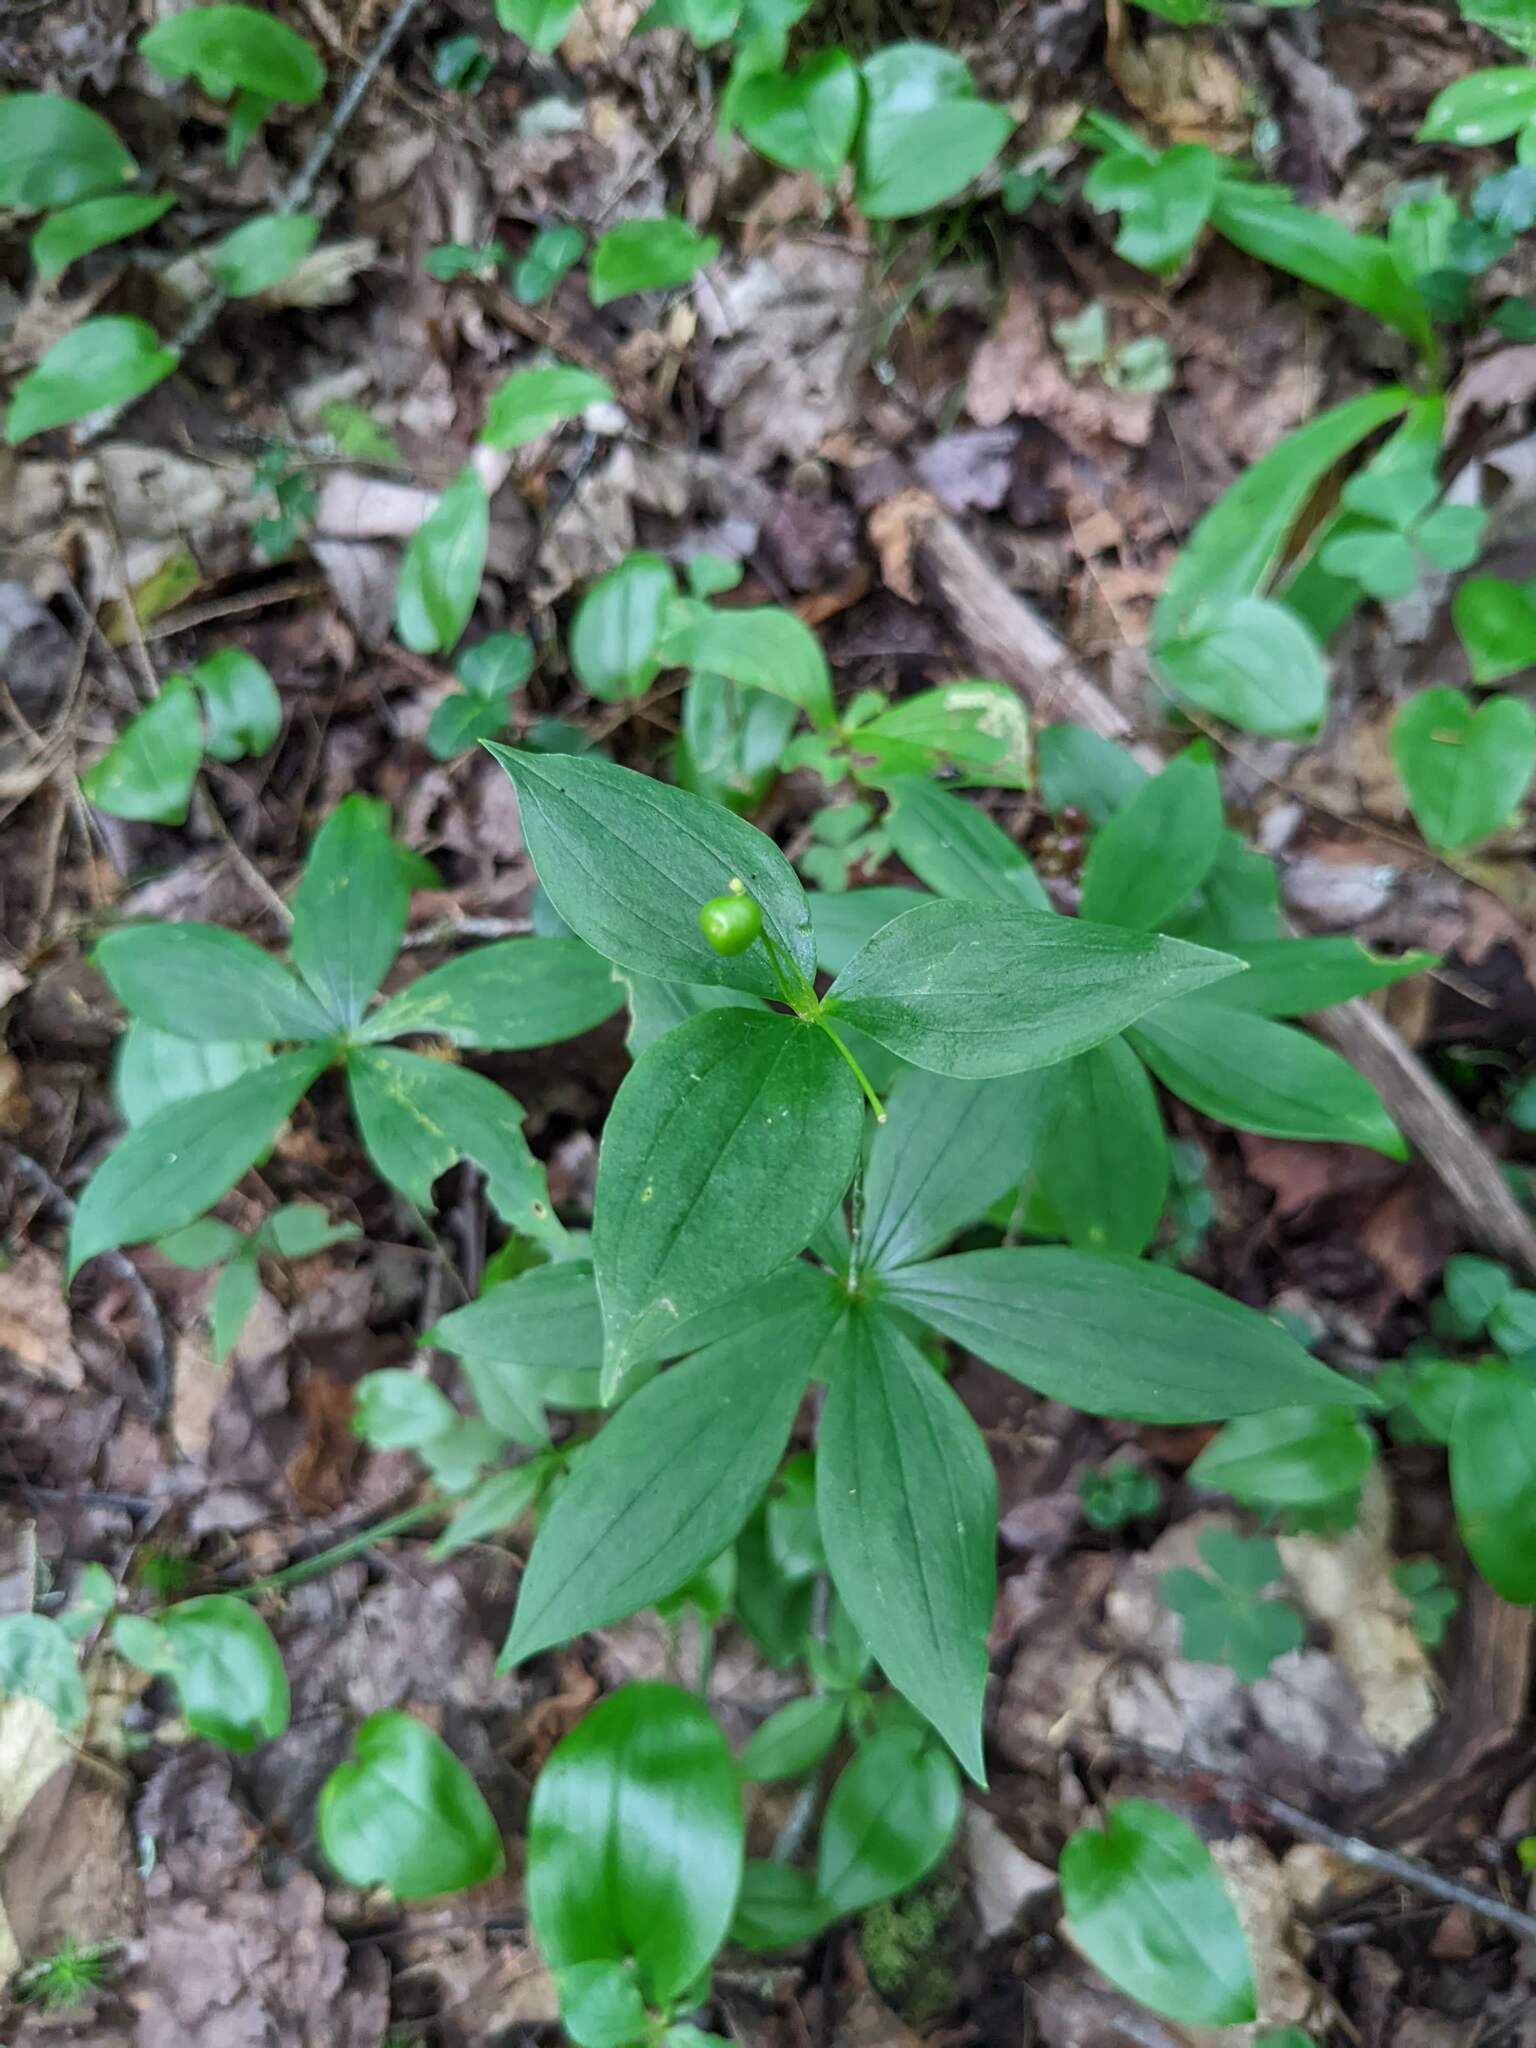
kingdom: Plantae
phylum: Tracheophyta
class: Liliopsida
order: Liliales
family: Liliaceae
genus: Medeola
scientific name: Medeola virginiana
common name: Indian cucumber-root
